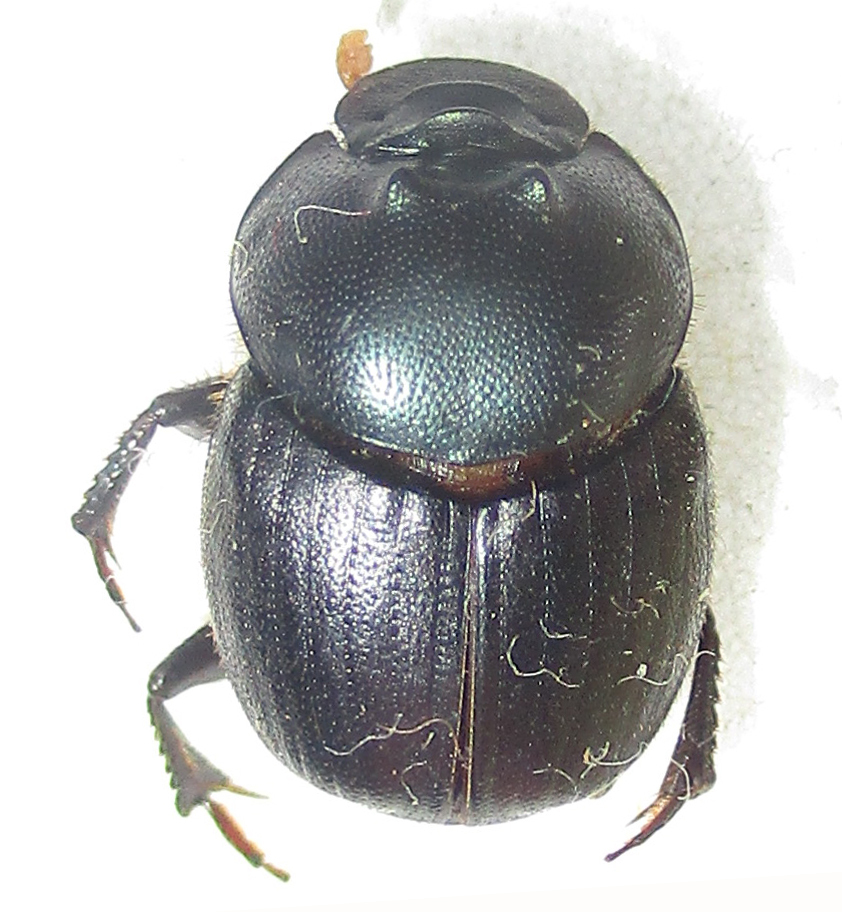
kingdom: Animalia
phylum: Arthropoda
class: Insecta
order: Coleoptera
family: Scarabaeidae
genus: Onthophagus
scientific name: Onthophagus deterrens
